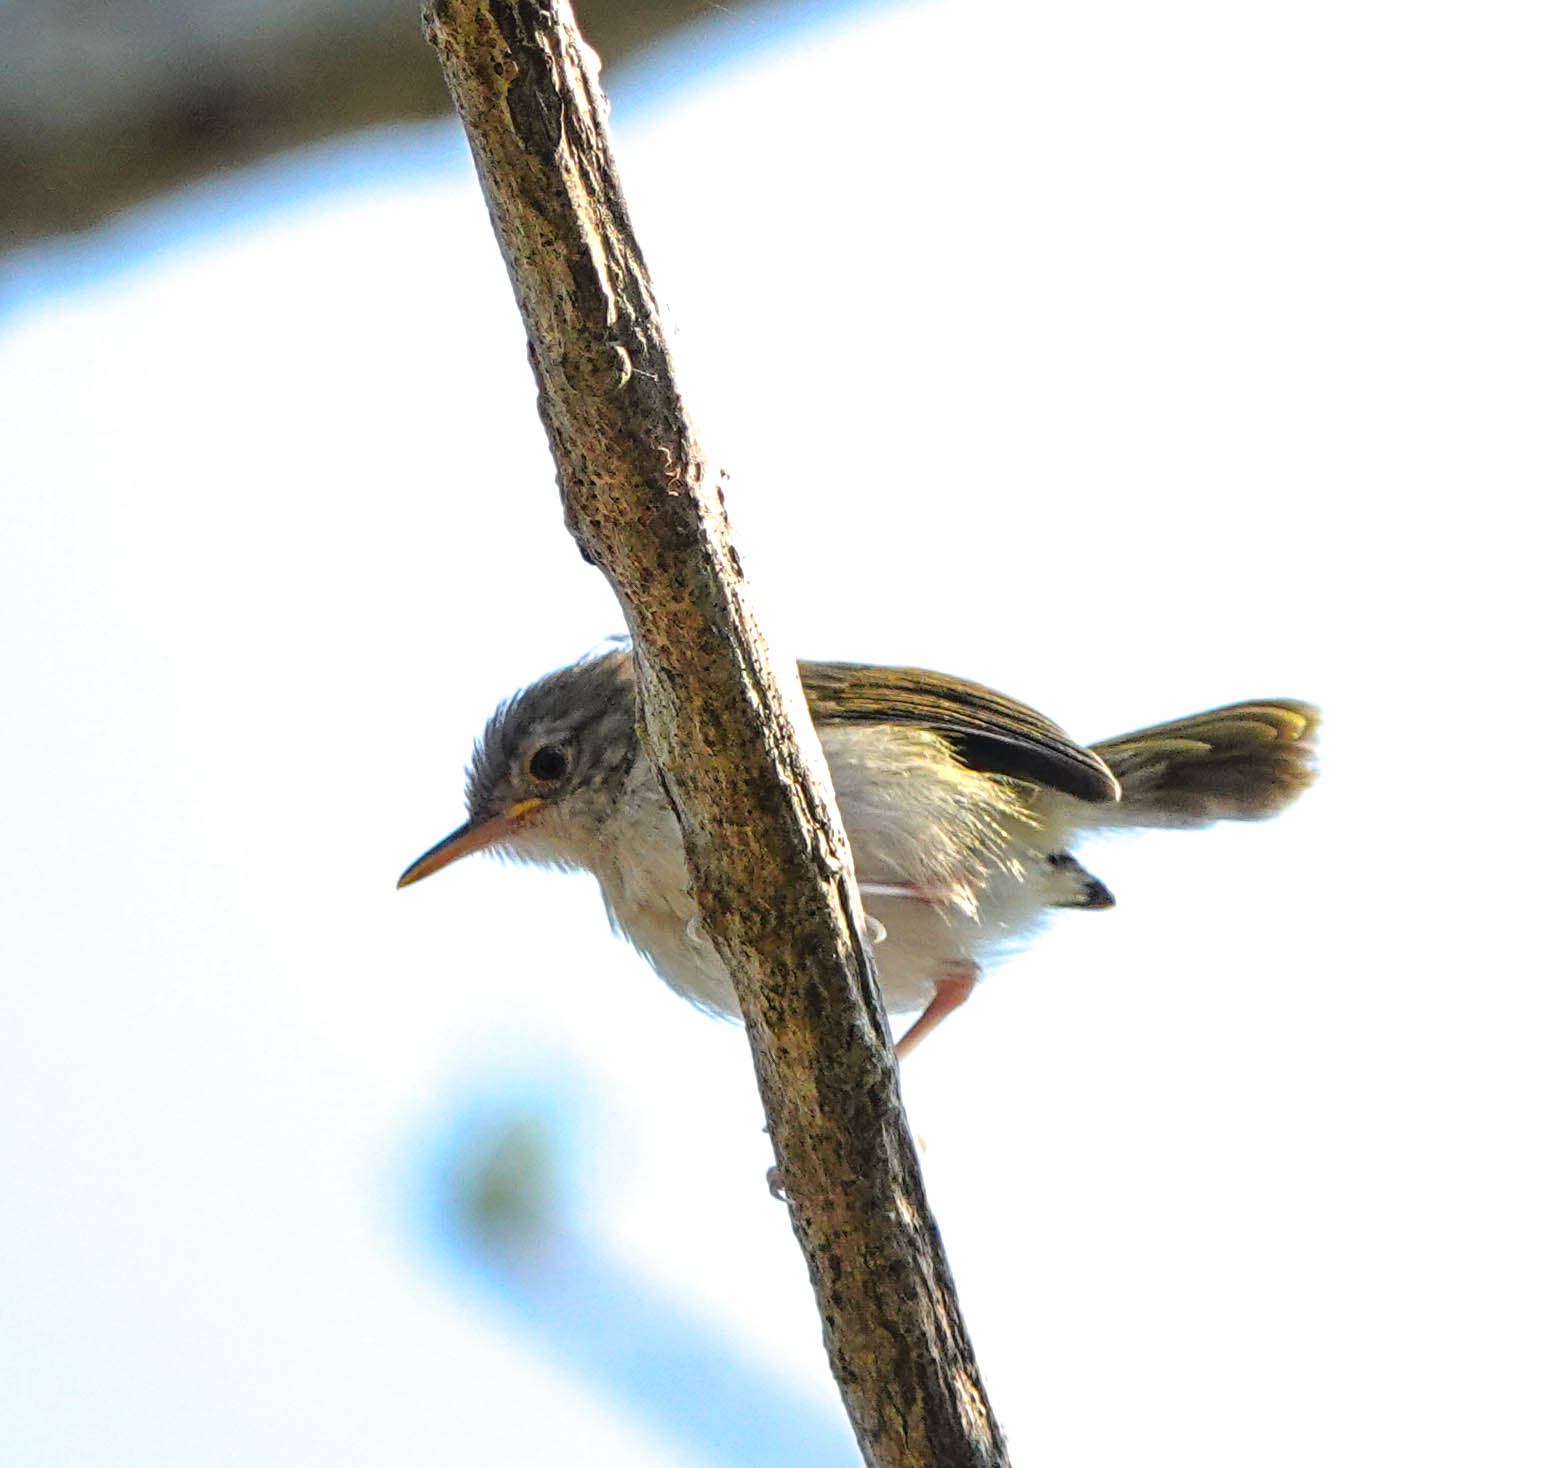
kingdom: Animalia
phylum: Chordata
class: Aves
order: Passeriformes
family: Cisticolidae
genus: Orthotomus
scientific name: Orthotomus sutorius
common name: Common tailorbird
